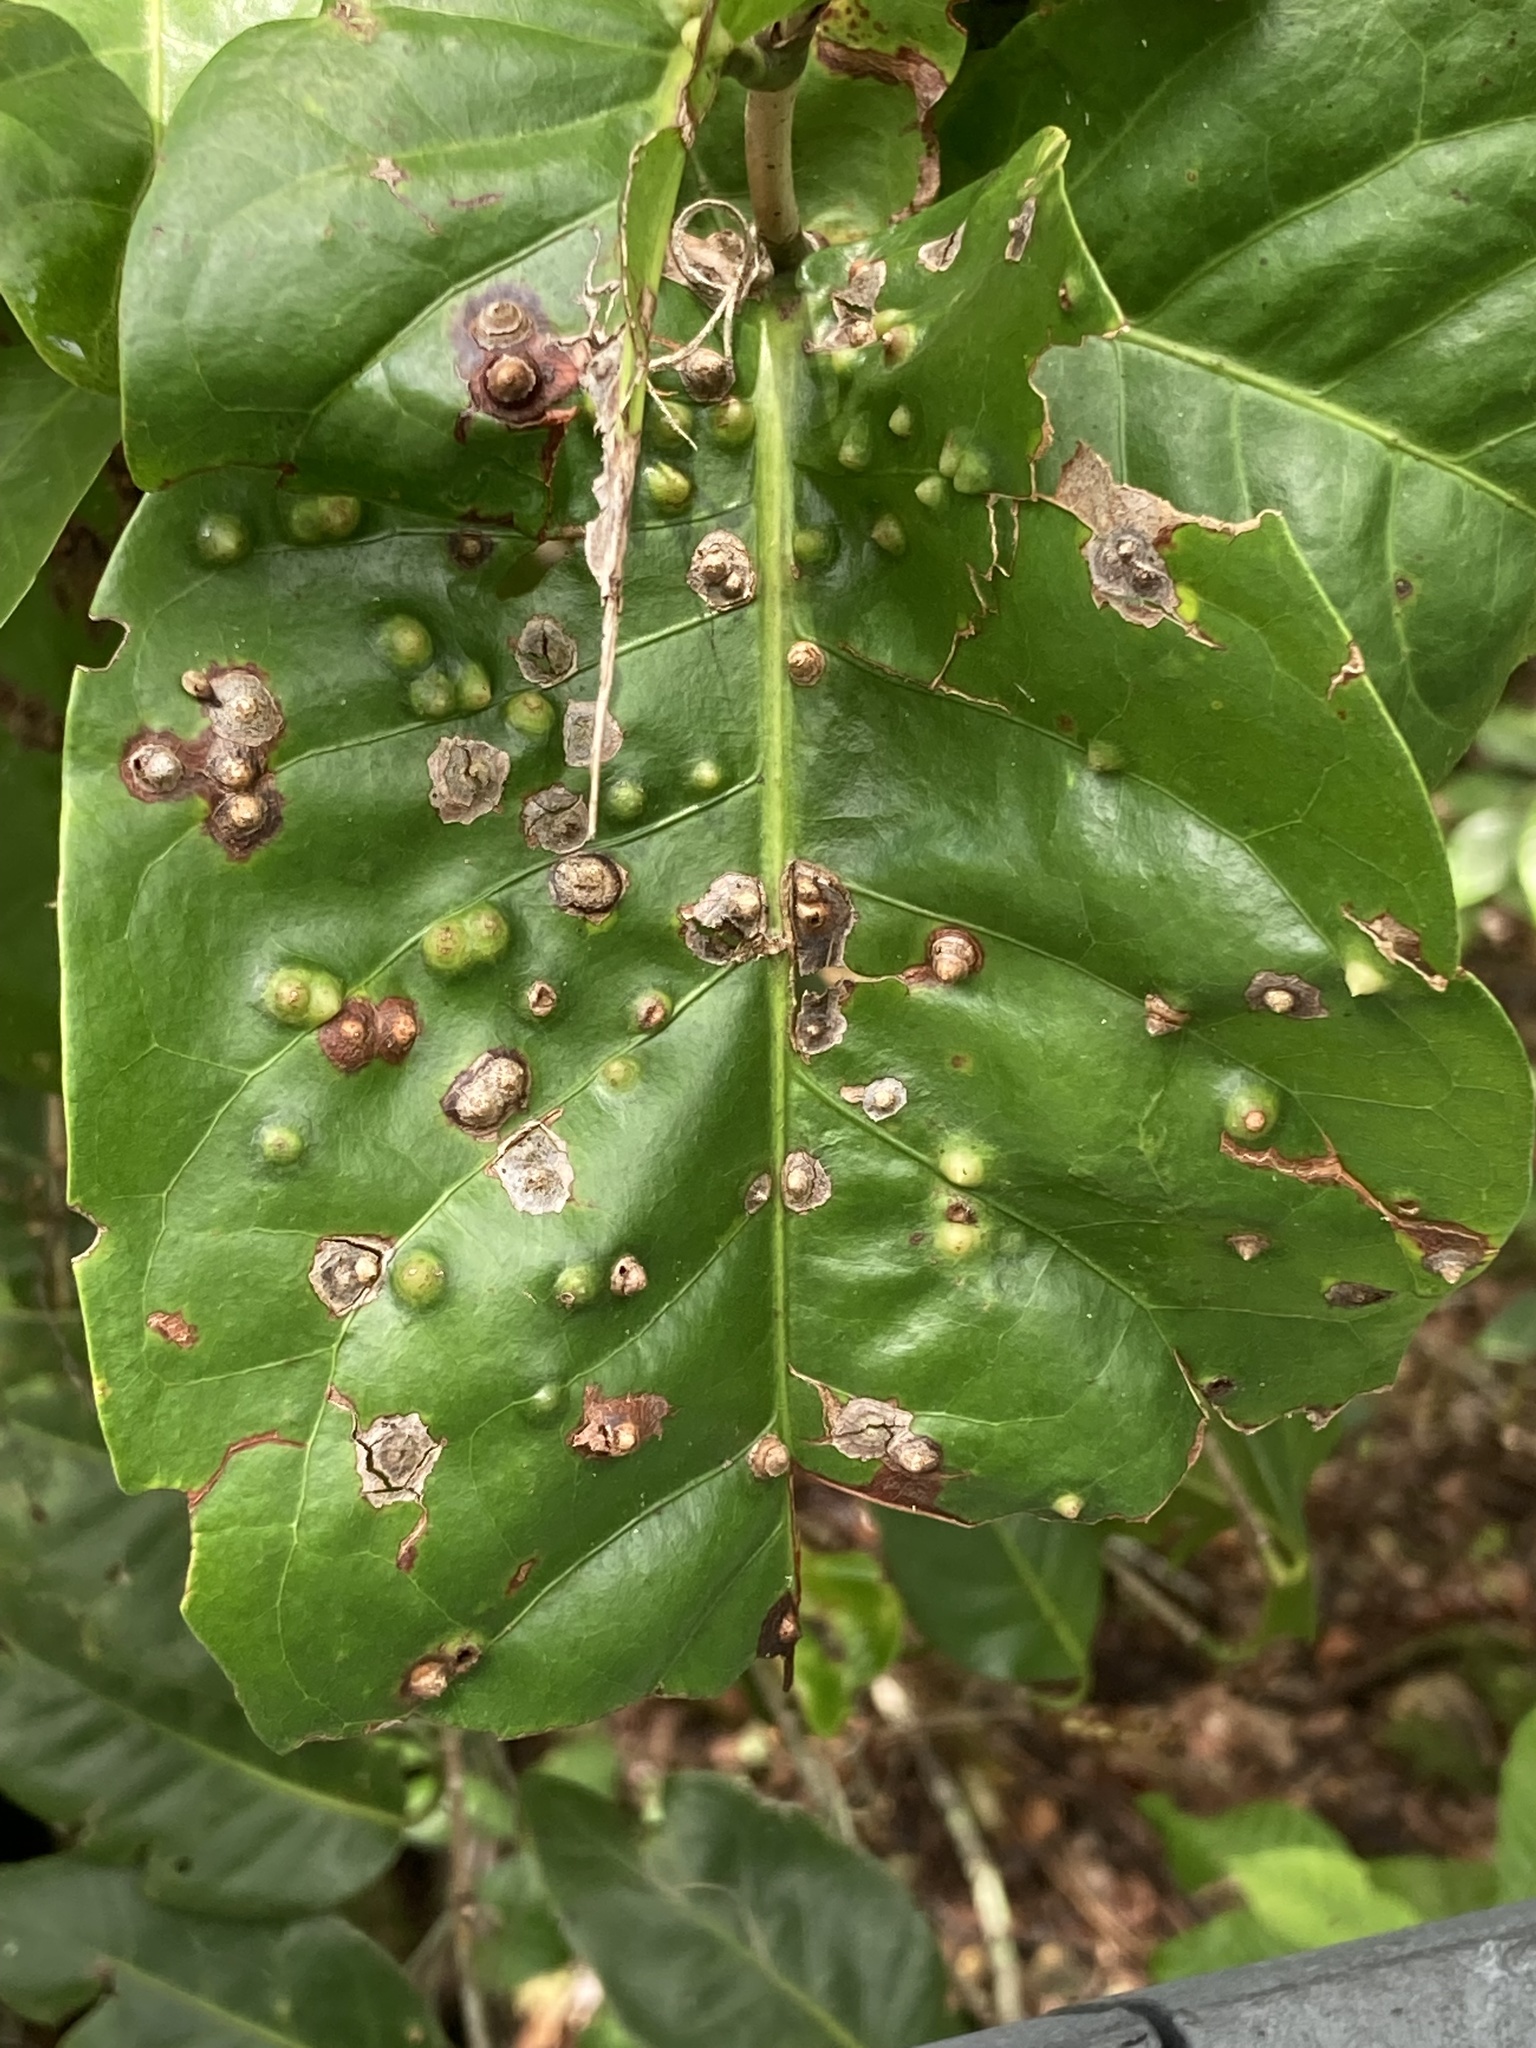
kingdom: Animalia
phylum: Arthropoda
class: Insecta
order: Diptera
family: Cecidomyiidae
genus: Ctenodactylomyia
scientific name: Ctenodactylomyia watsoni
